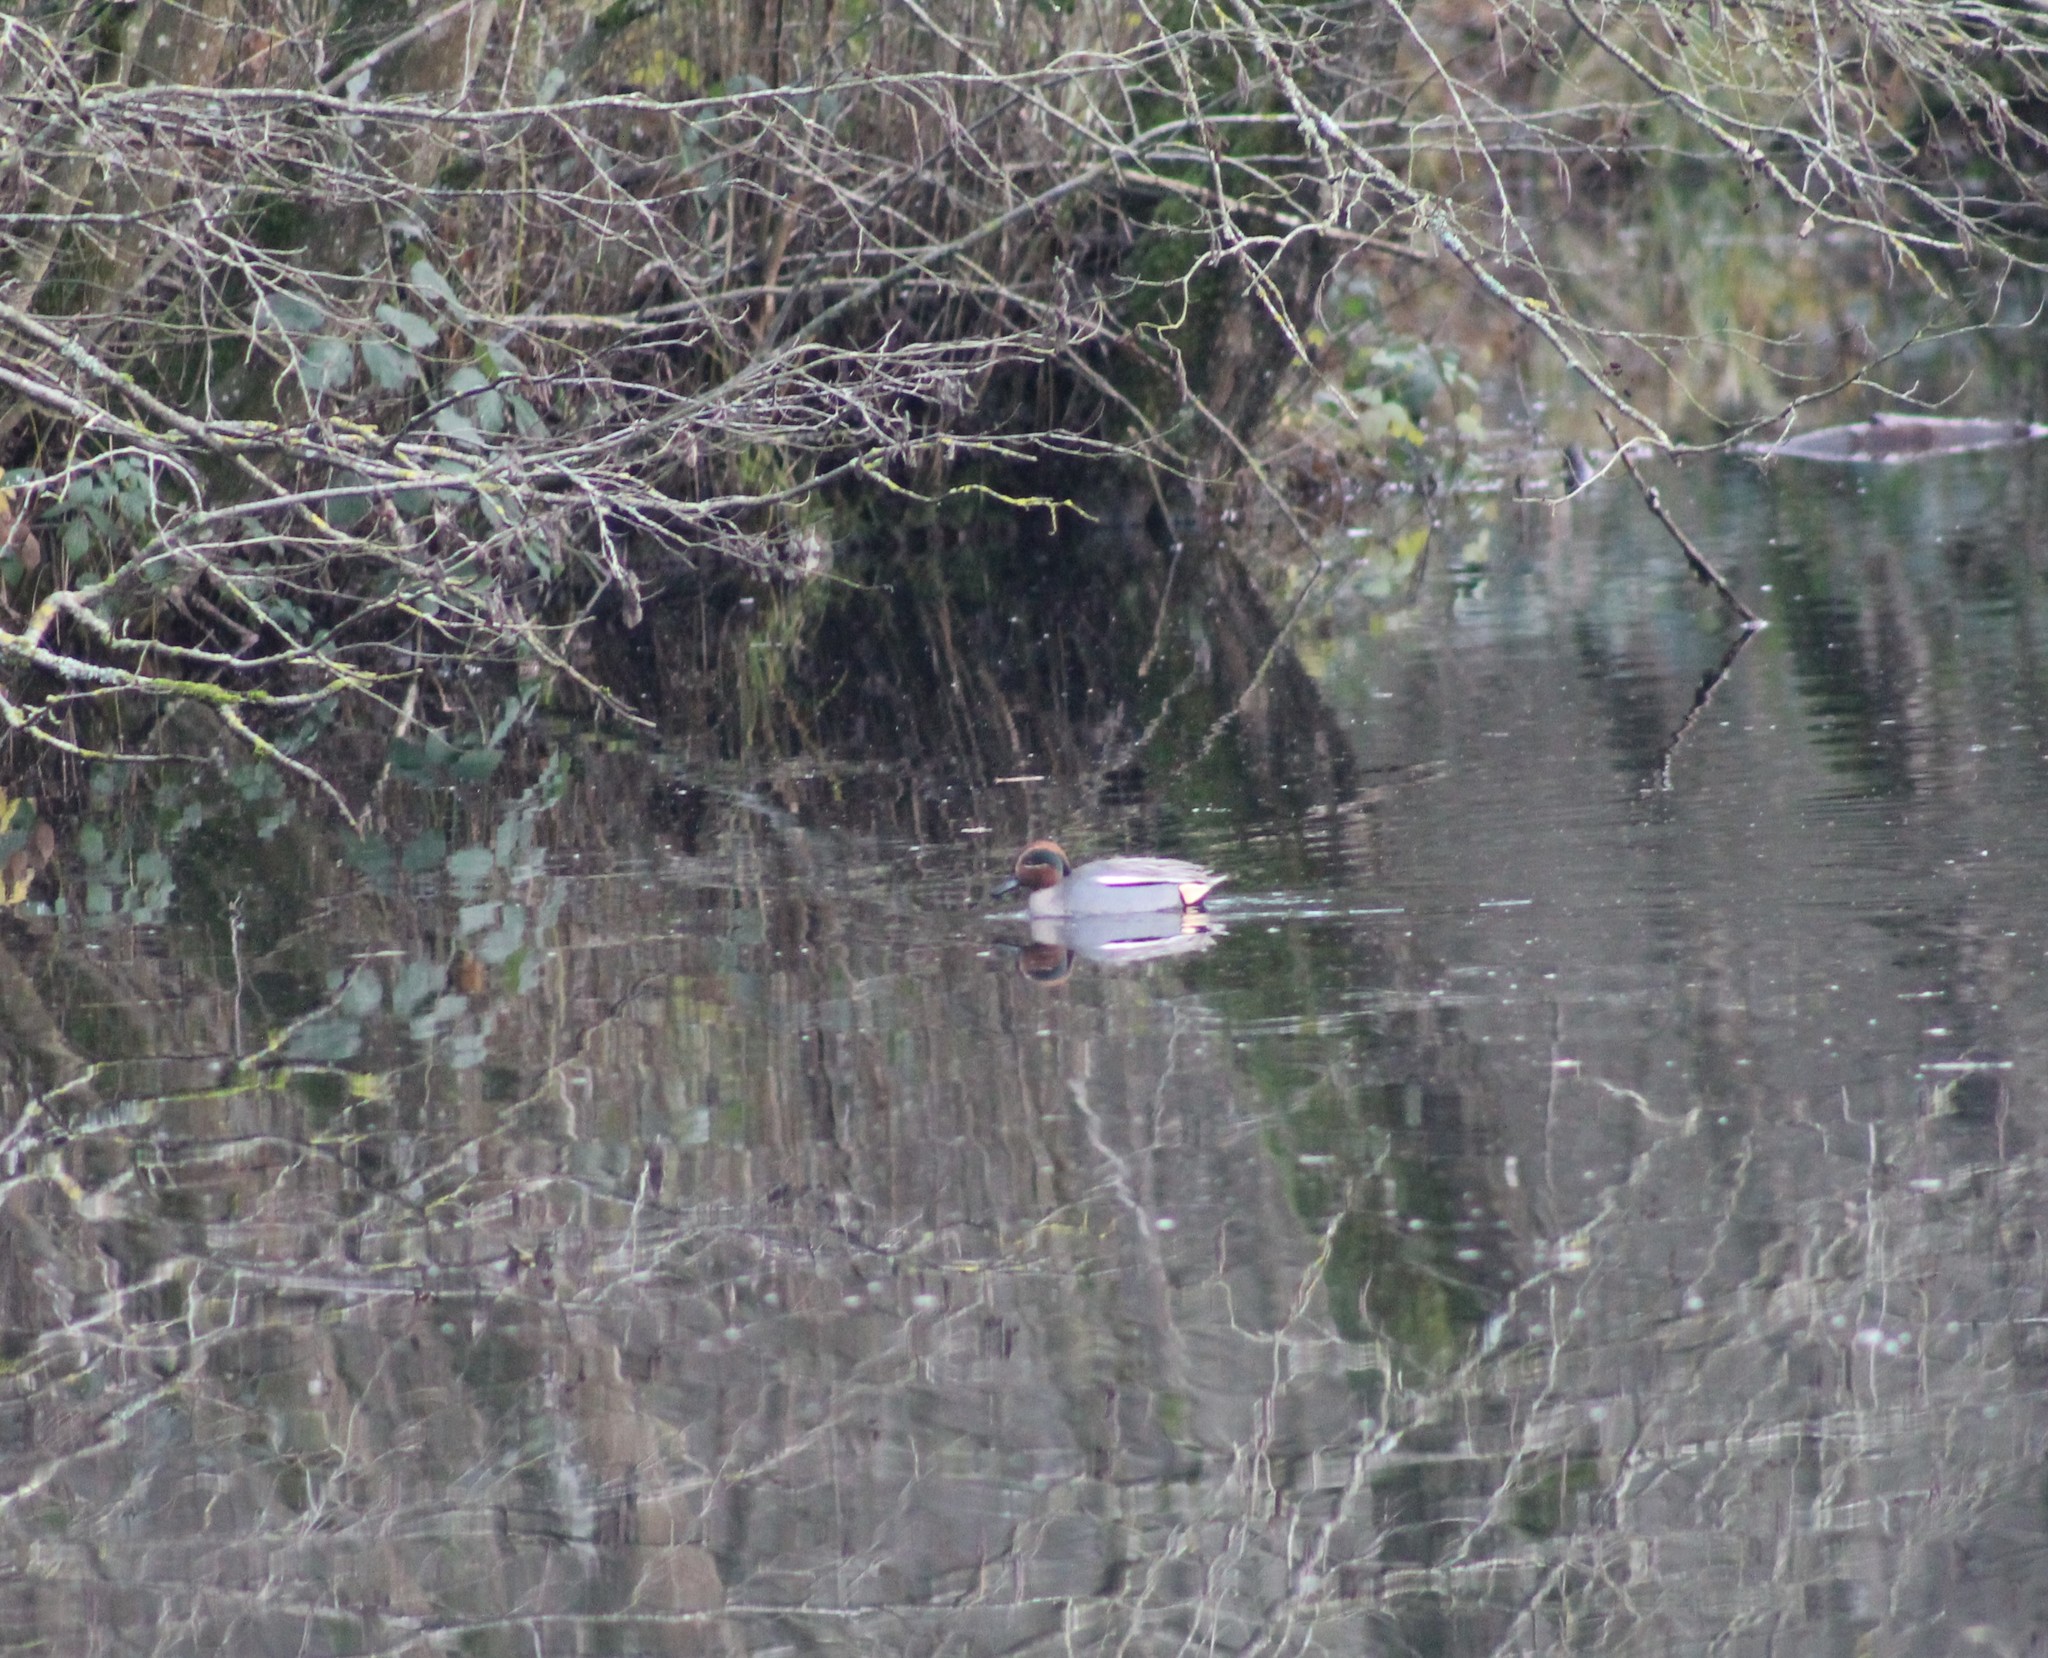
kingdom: Animalia
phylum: Chordata
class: Aves
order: Anseriformes
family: Anatidae
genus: Anas
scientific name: Anas crecca
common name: Eurasian teal
